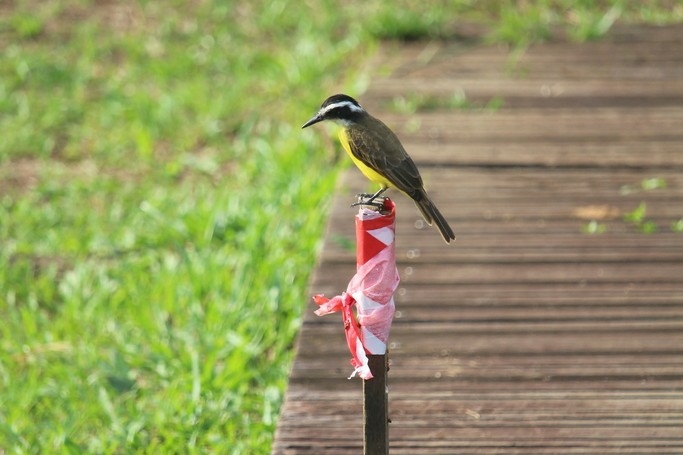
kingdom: Animalia
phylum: Chordata
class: Aves
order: Passeriformes
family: Tyrannidae
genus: Pitangus
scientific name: Pitangus lictor
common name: Lesser kiskadee
